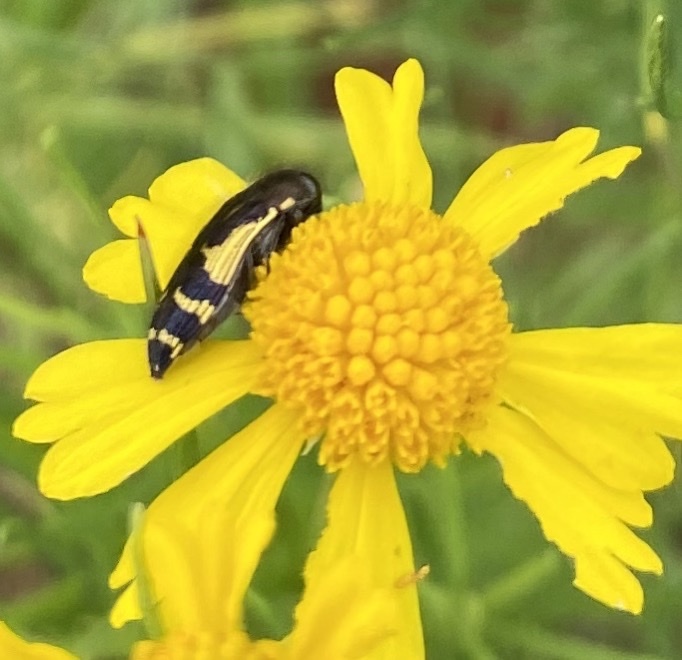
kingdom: Animalia
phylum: Arthropoda
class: Insecta
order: Coleoptera
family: Buprestidae
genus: Acmaeodera
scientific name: Acmaeodera pulchella
